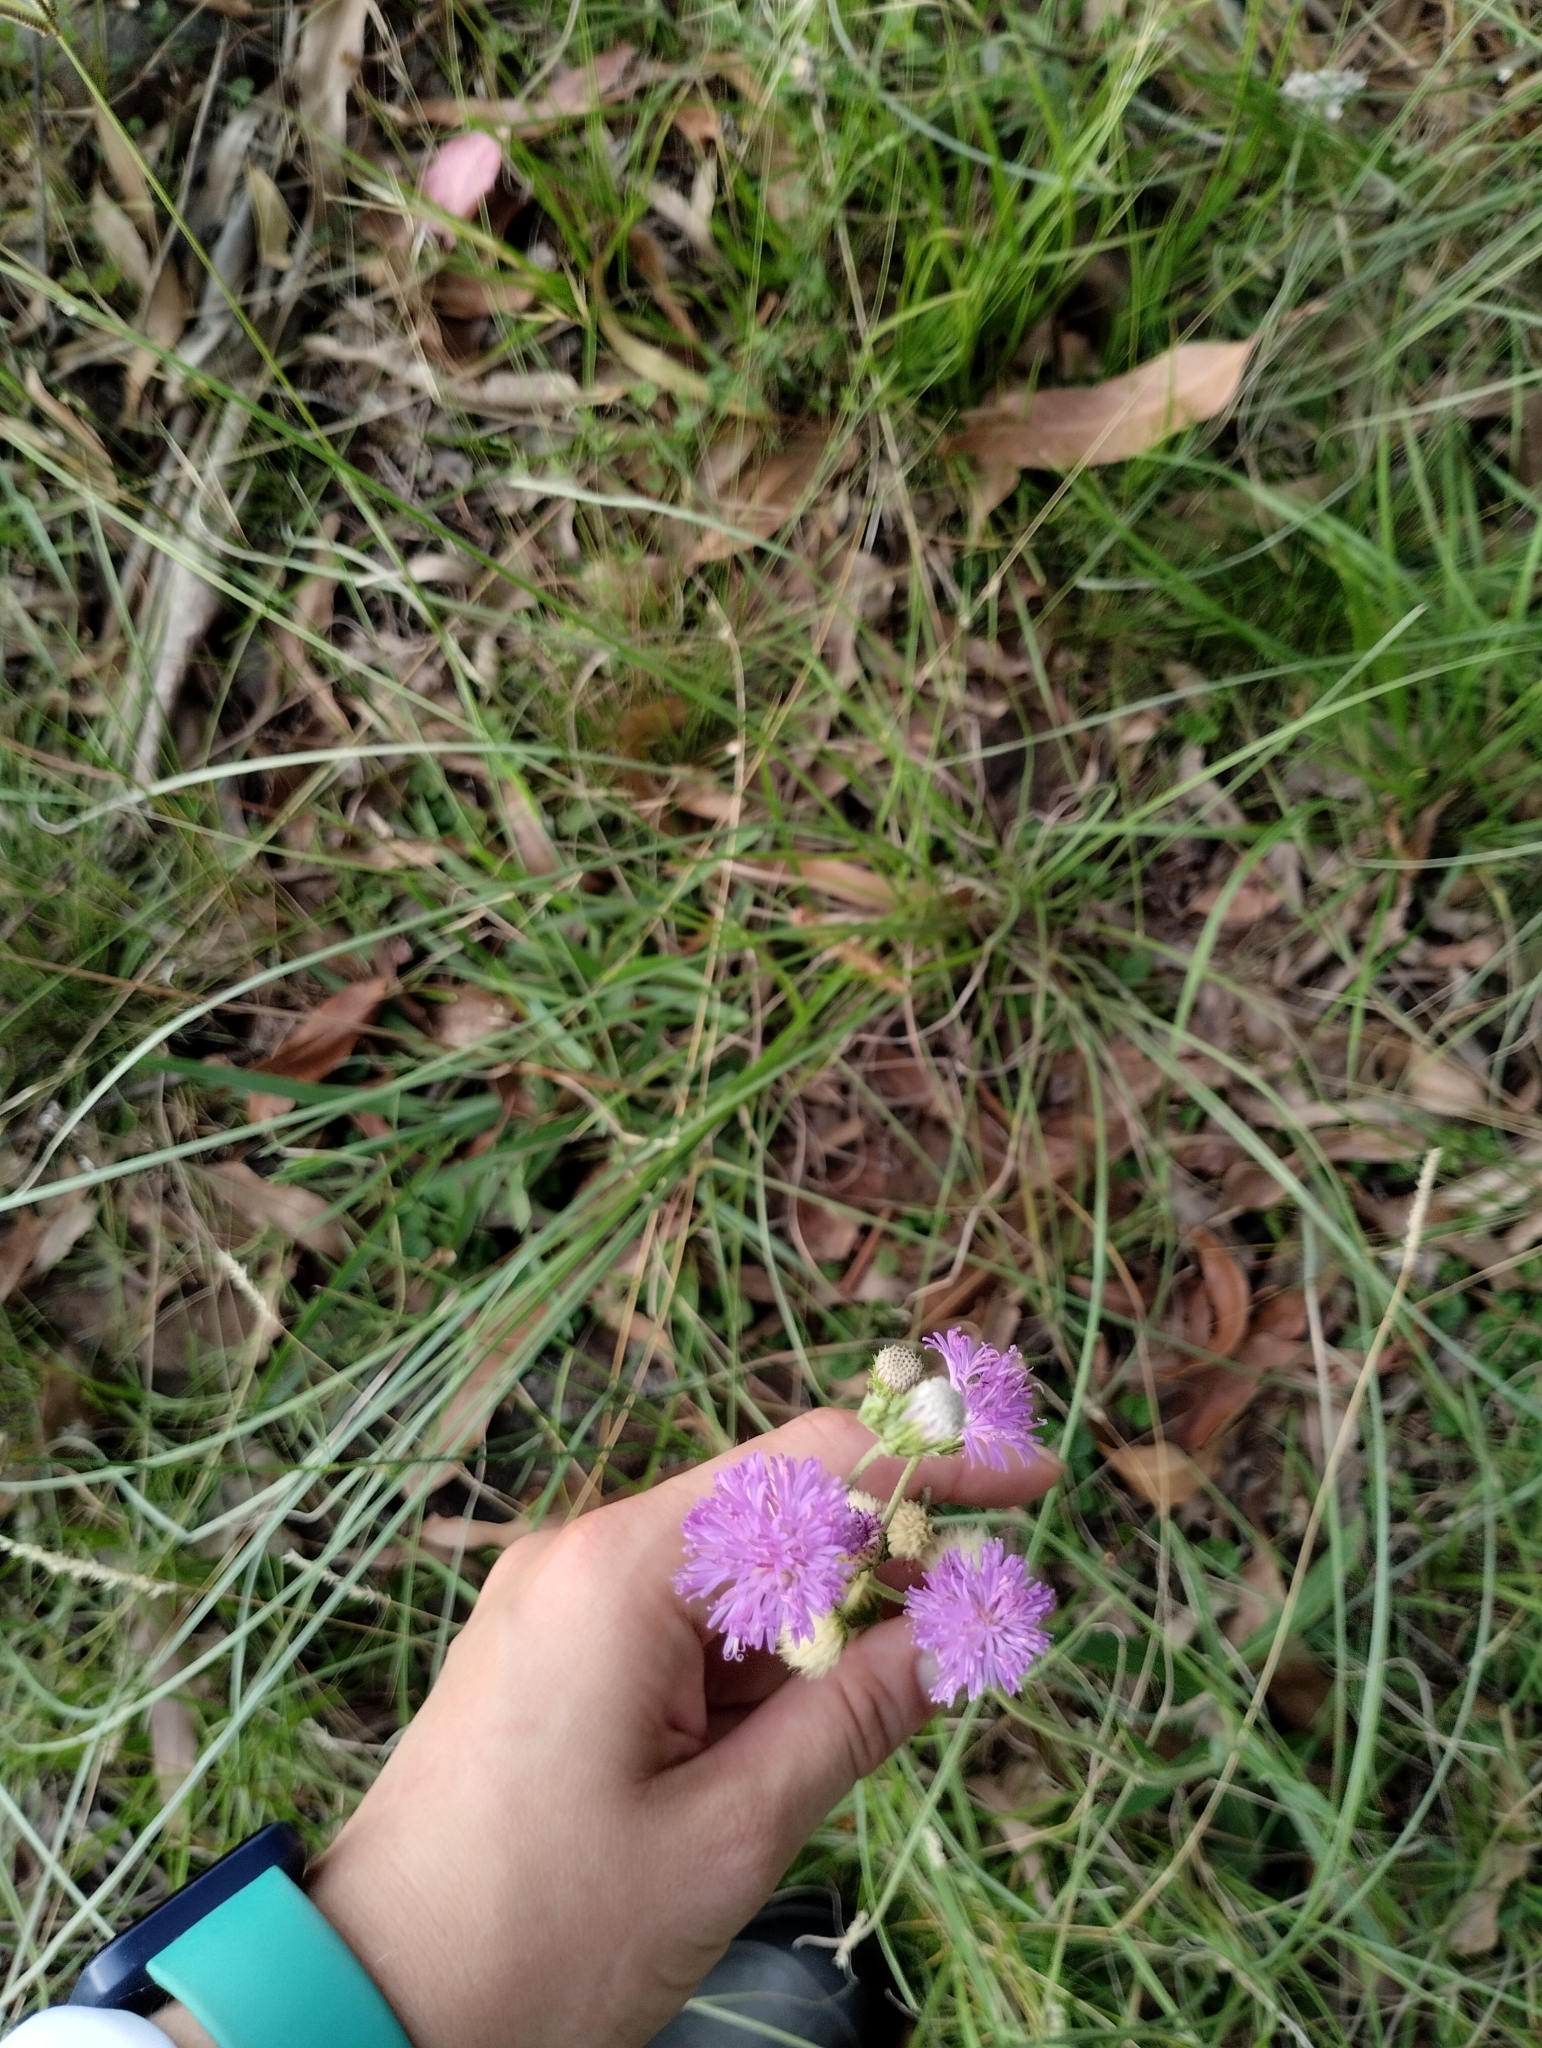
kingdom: Plantae
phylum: Tracheophyta
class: Magnoliopsida
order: Asterales
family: Asteraceae
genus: Chrysolaena
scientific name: Chrysolaena flexuosa
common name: Zig-zag vernonia
